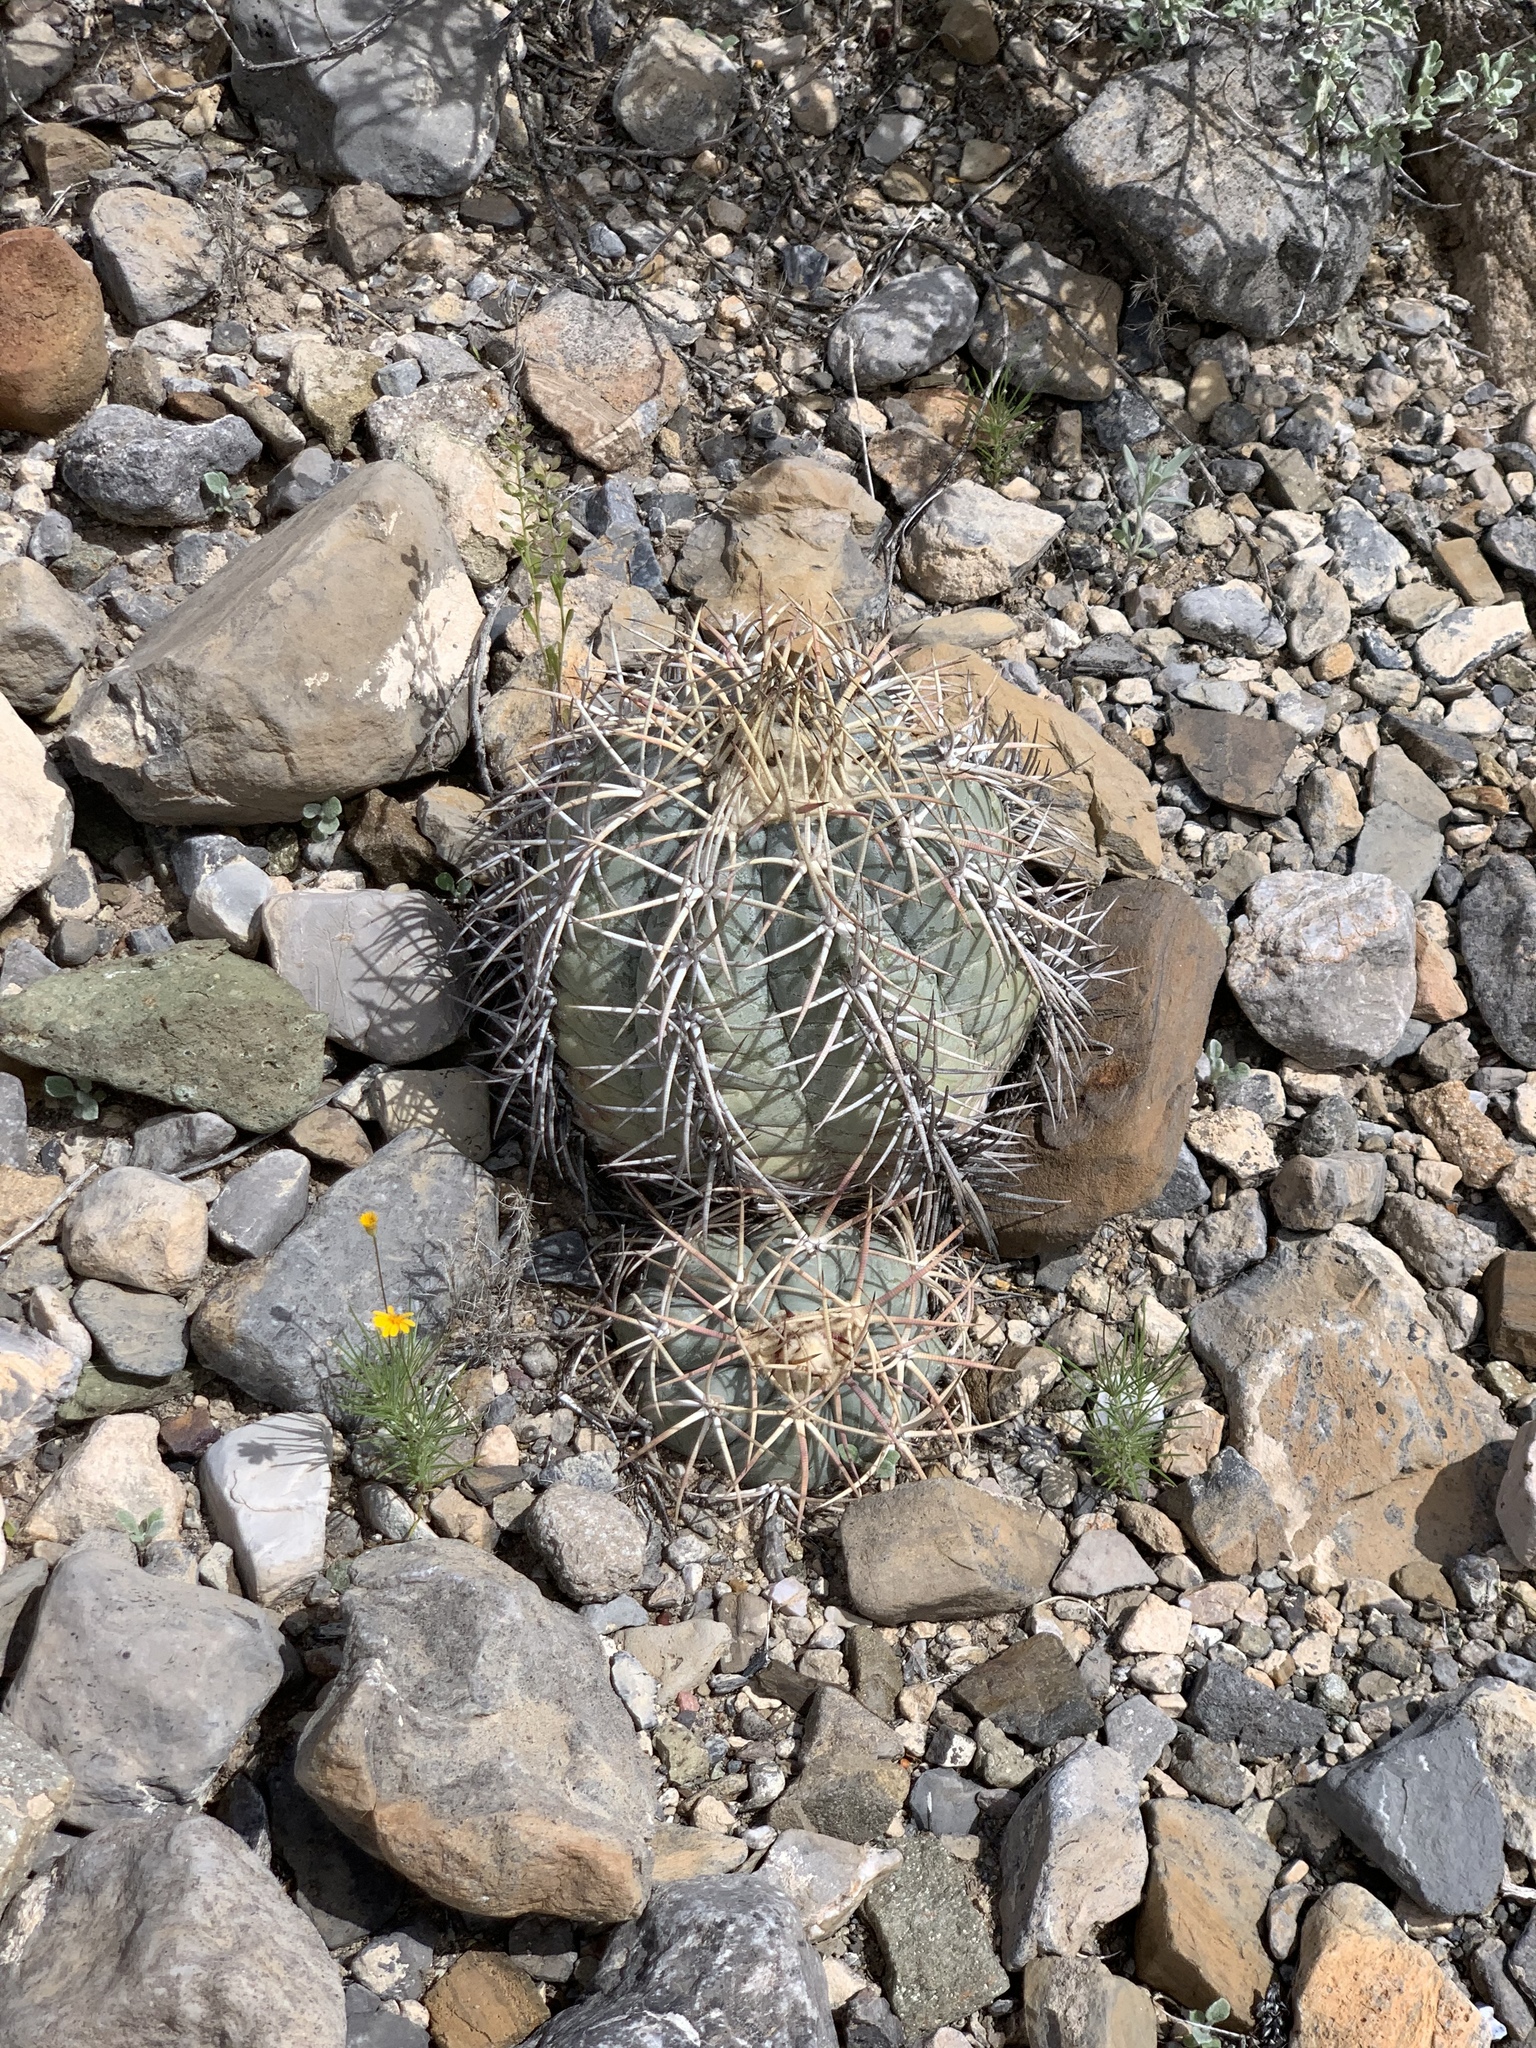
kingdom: Plantae
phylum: Tracheophyta
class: Magnoliopsida
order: Caryophyllales
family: Cactaceae
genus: Echinocactus
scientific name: Echinocactus horizonthalonius
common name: Devilshead
